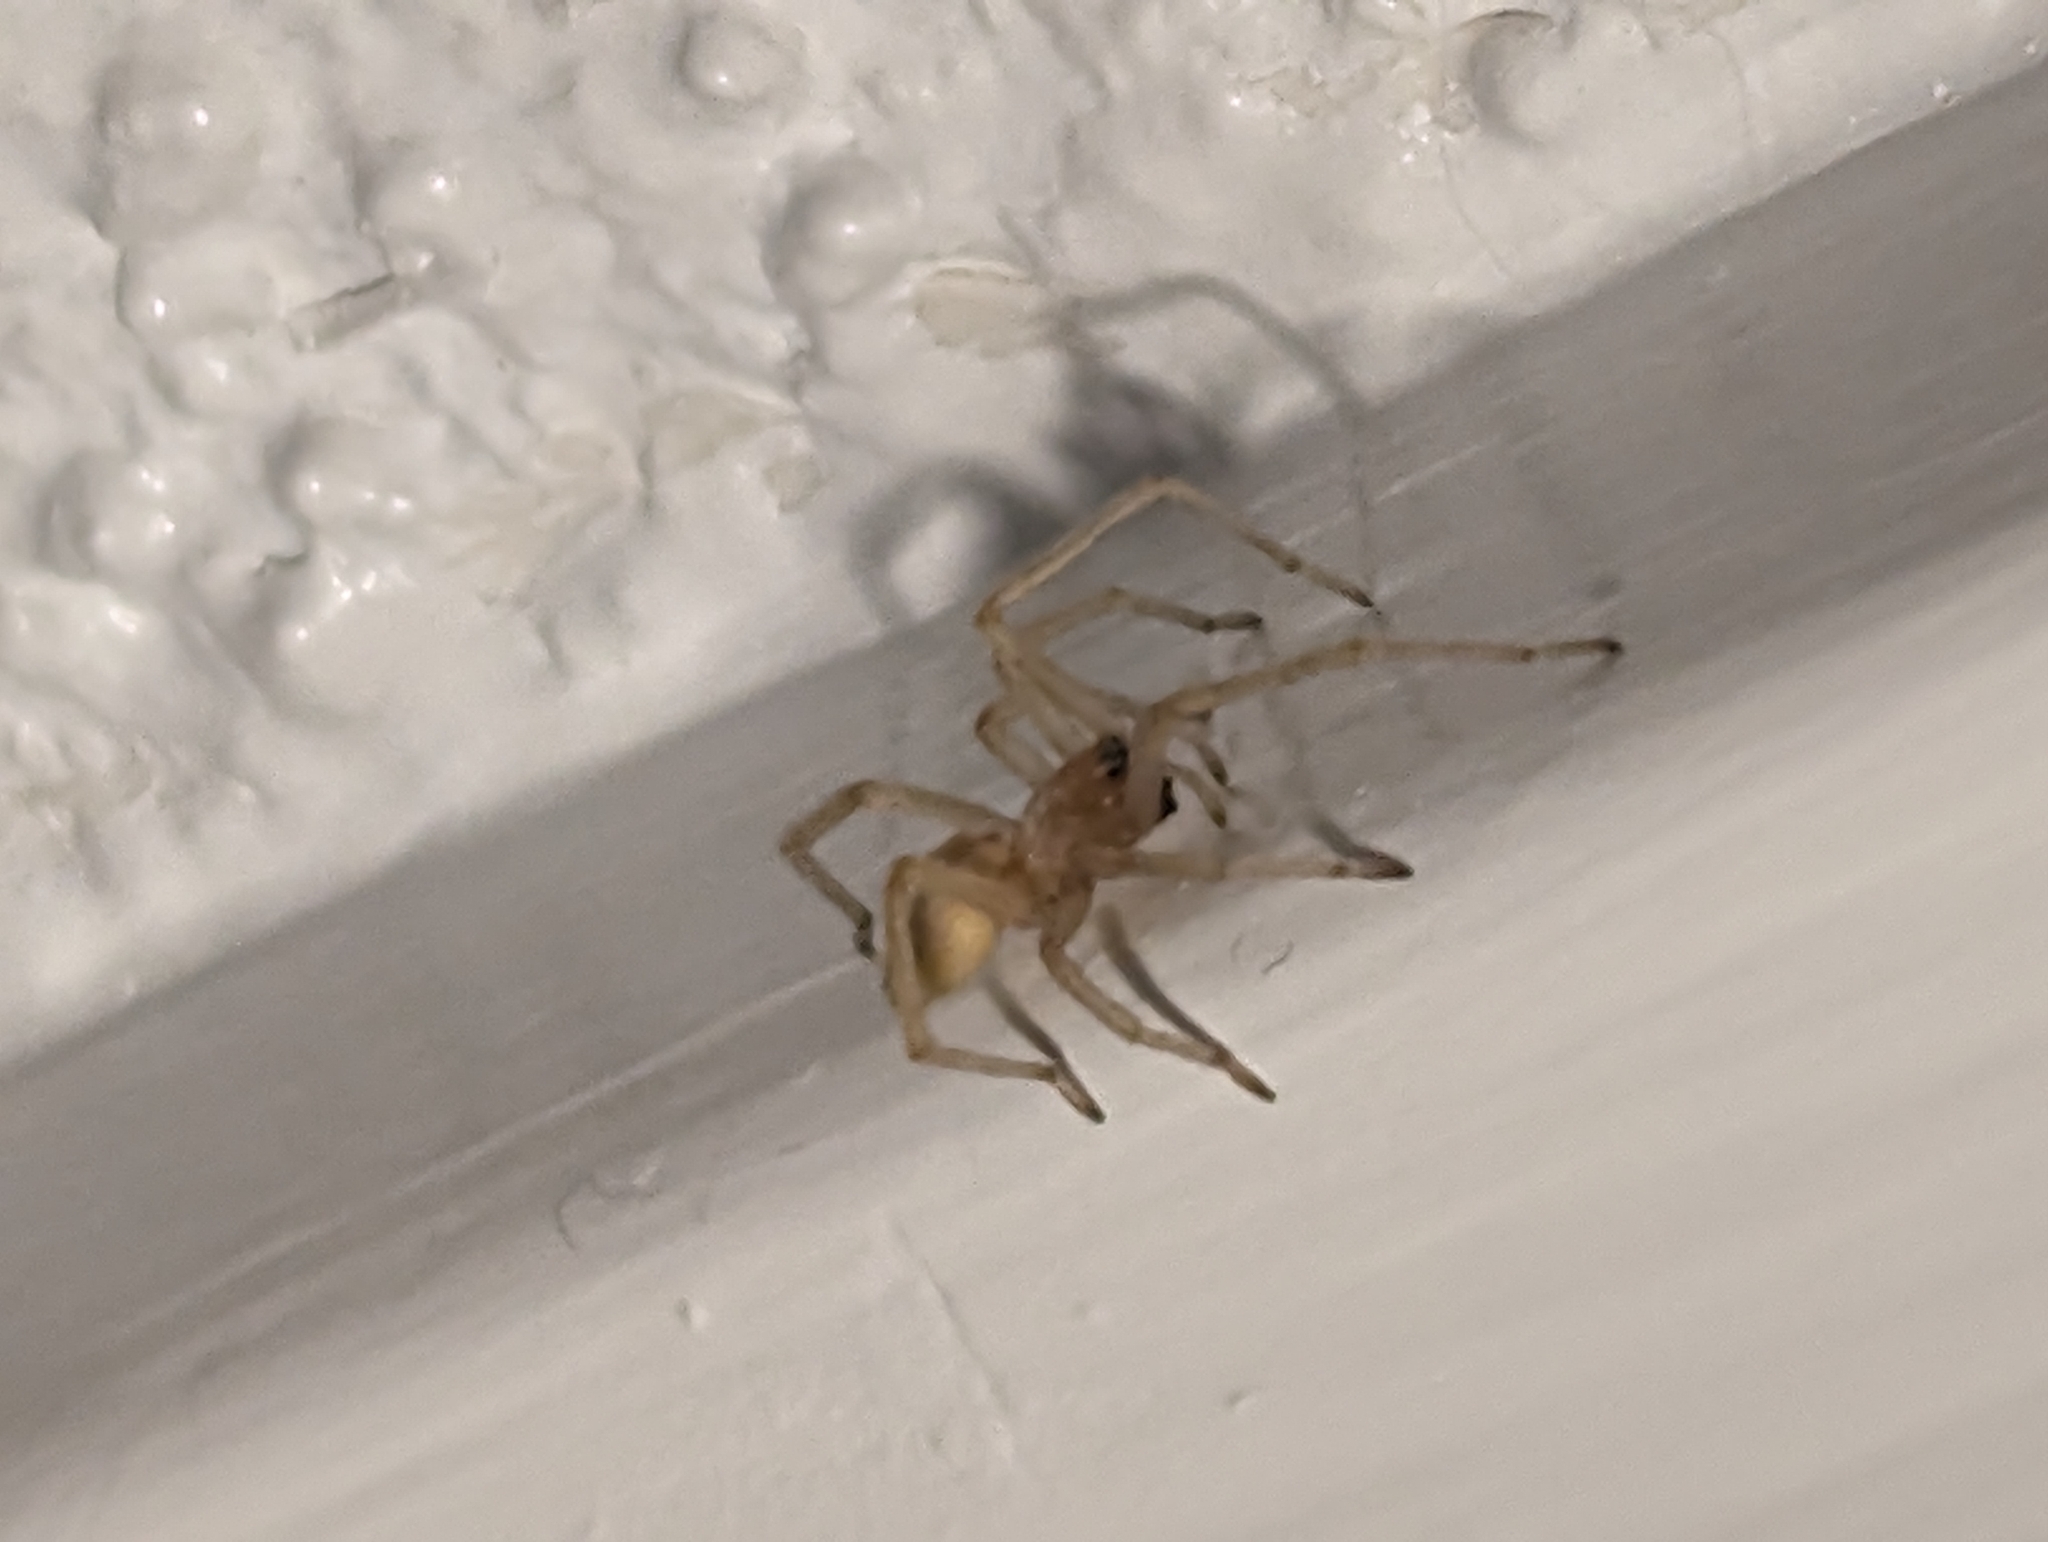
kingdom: Animalia
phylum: Arthropoda
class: Arachnida
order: Araneae
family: Cheiracanthiidae
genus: Cheiracanthium
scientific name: Cheiracanthium mildei
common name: Northern yellow sac spider
